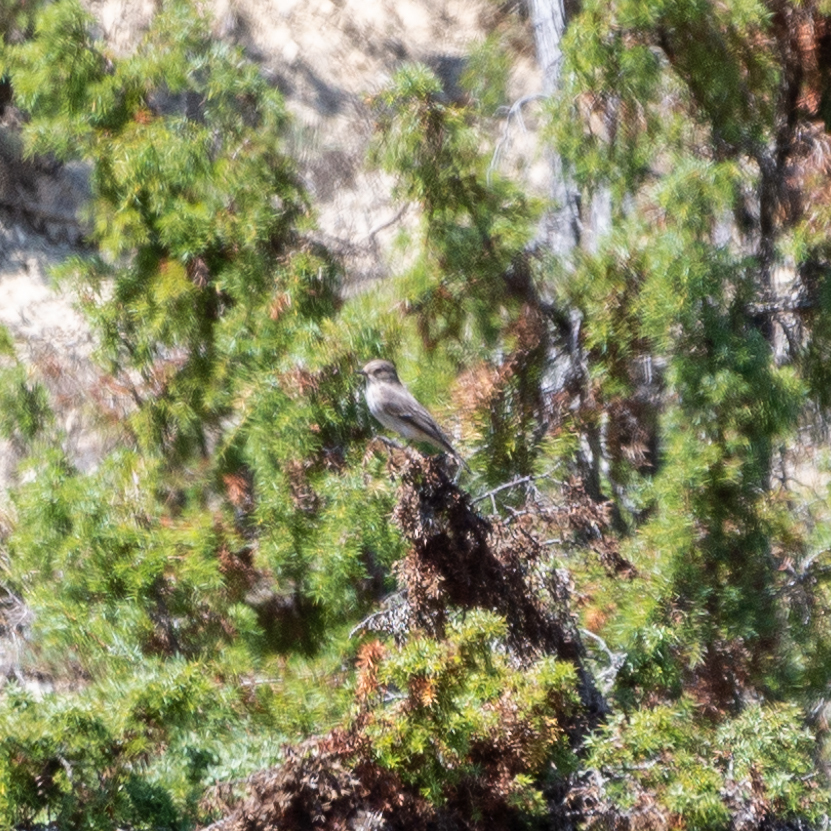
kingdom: Animalia
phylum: Chordata
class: Aves
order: Passeriformes
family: Muscicapidae
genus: Muscicapa
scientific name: Muscicapa striata
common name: Spotted flycatcher
